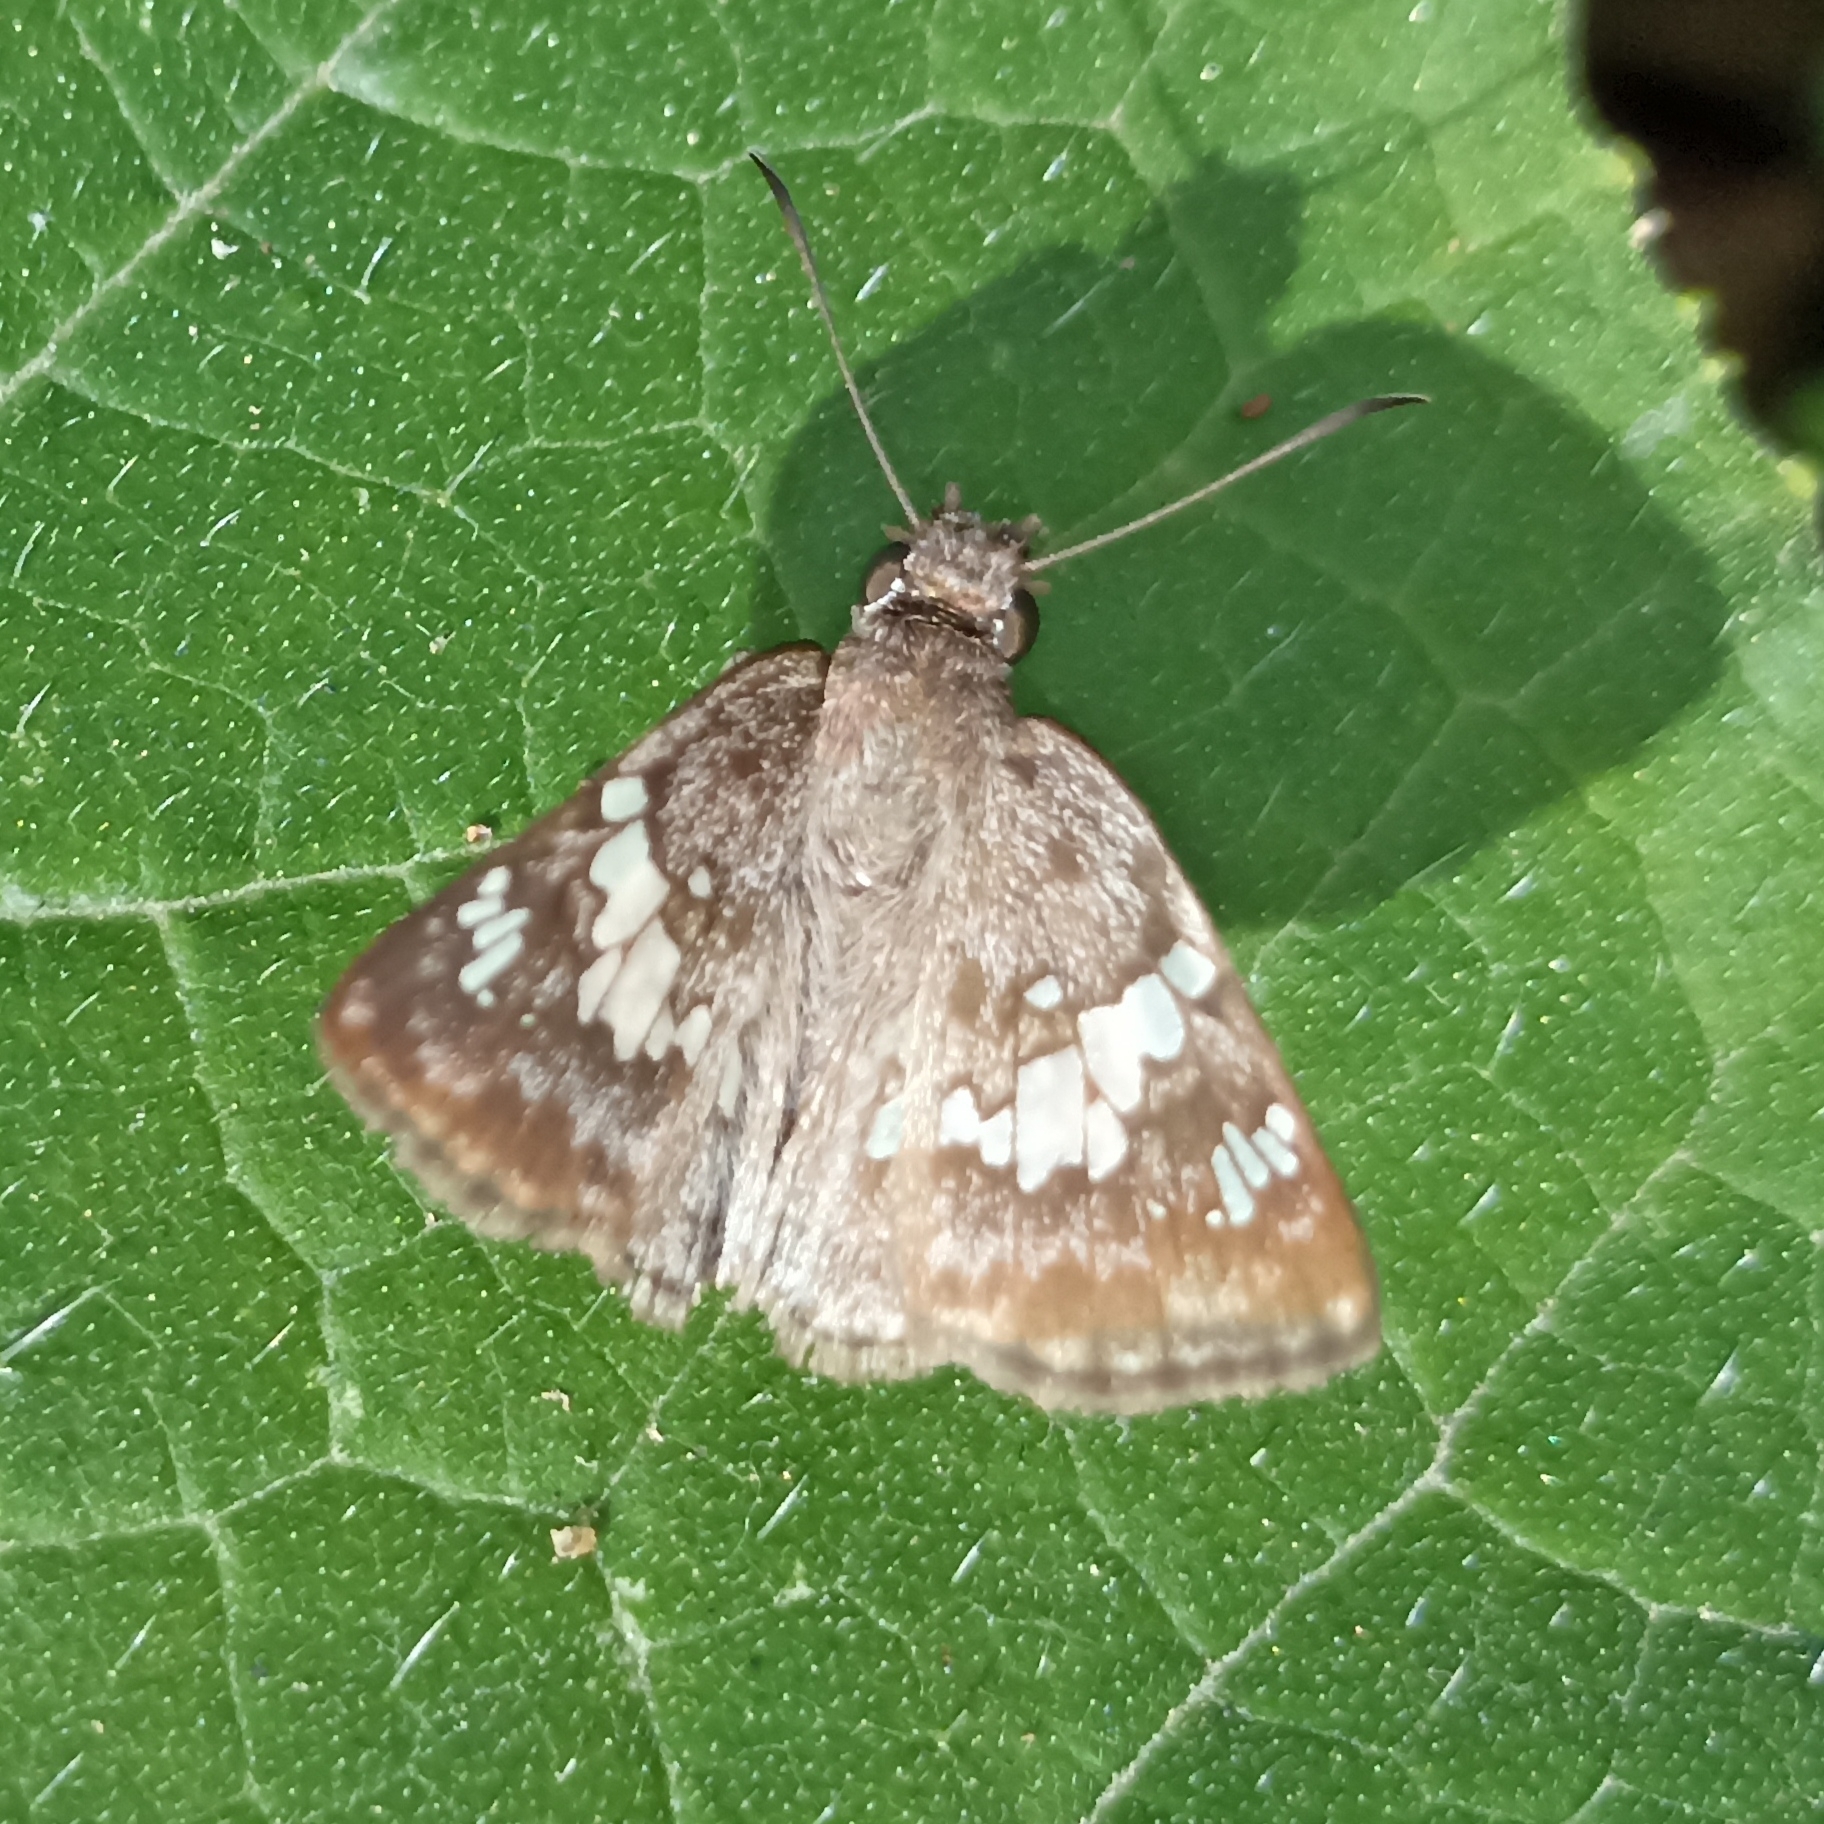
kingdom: Animalia
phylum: Arthropoda
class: Insecta
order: Lepidoptera
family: Hesperiidae
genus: Xenophanes
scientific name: Xenophanes tryxus
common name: Glassy-winged skipper
